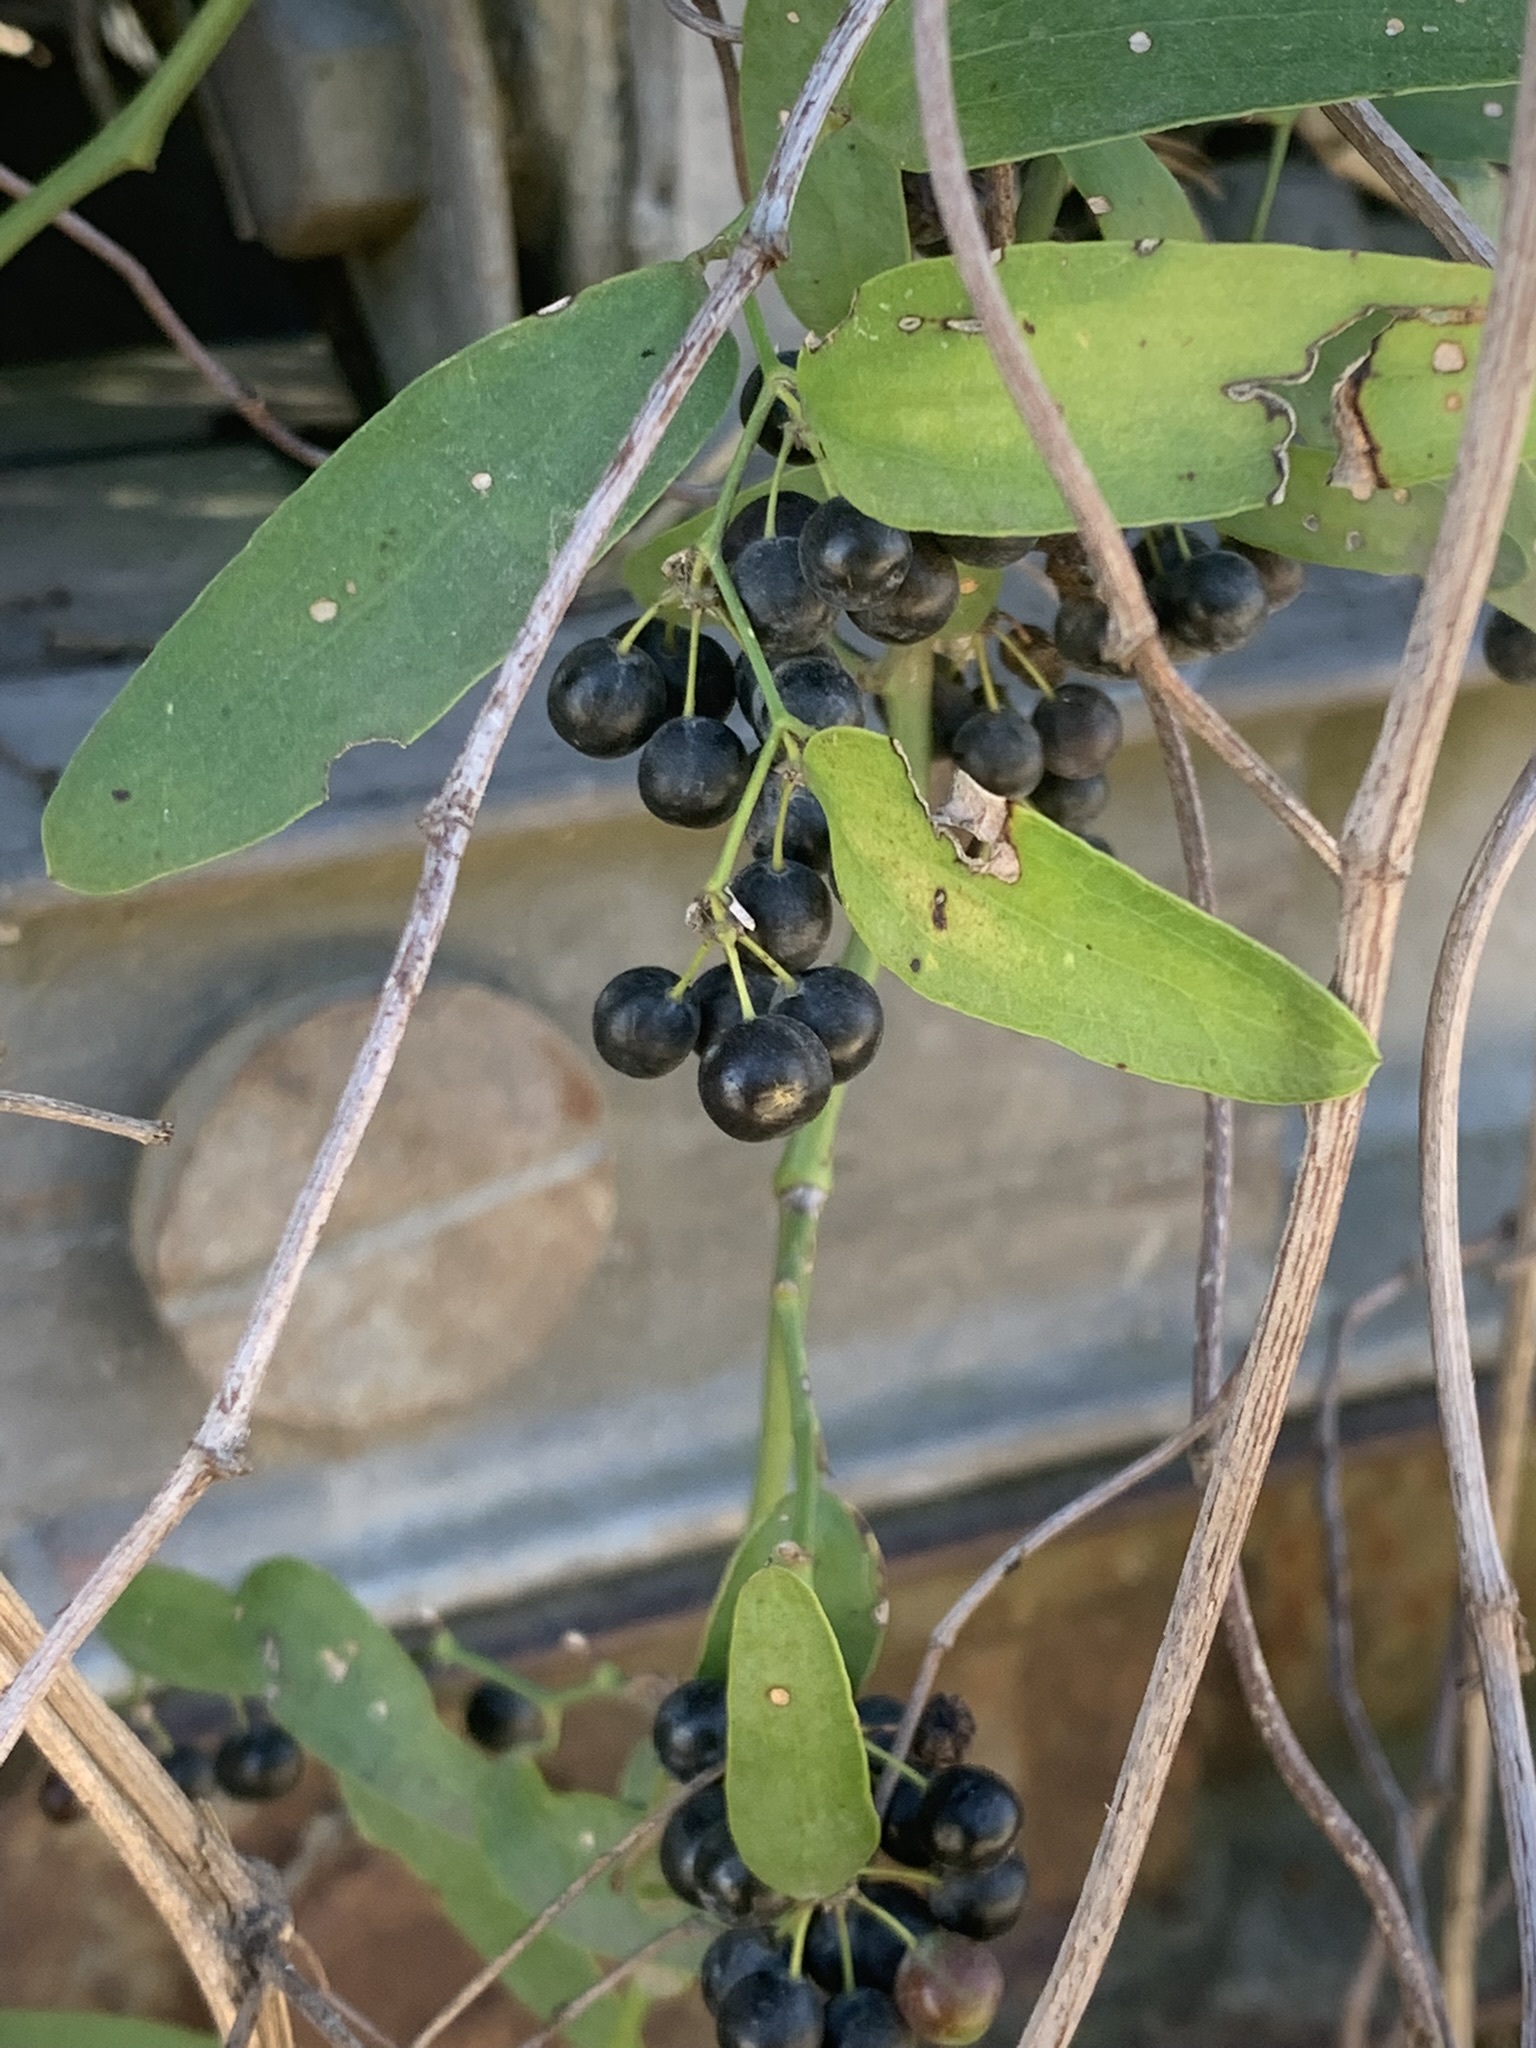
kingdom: Plantae
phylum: Tracheophyta
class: Liliopsida
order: Liliales
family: Smilacaceae
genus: Smilax
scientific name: Smilax campestris
